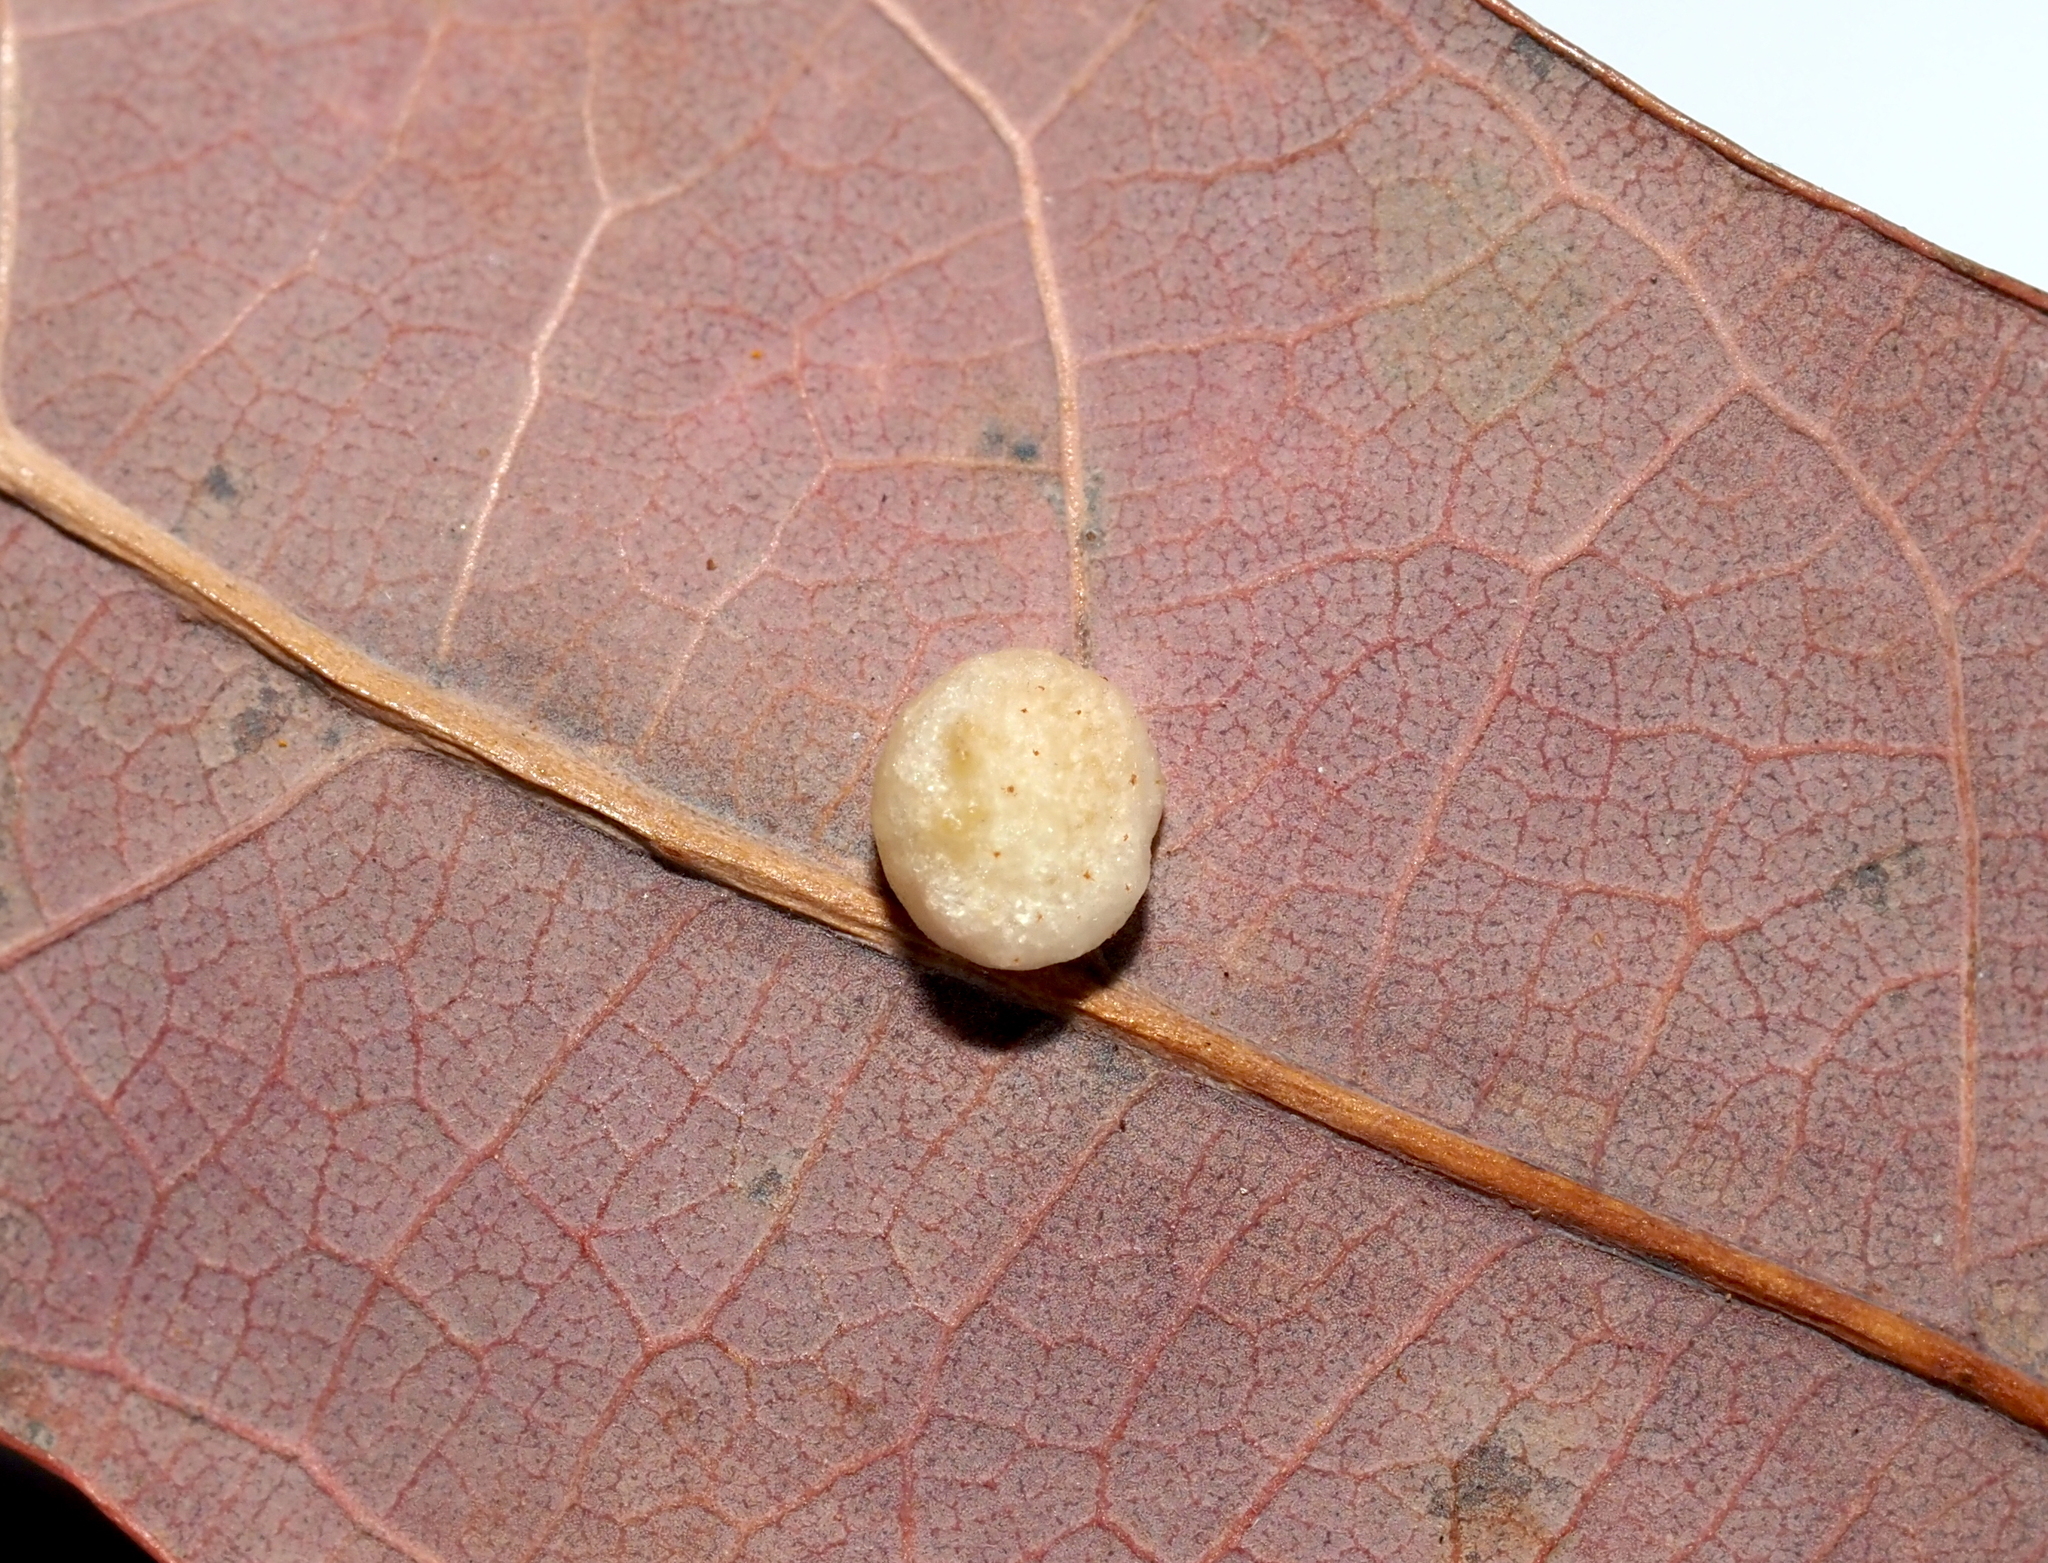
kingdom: Animalia
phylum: Arthropoda
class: Insecta
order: Hymenoptera
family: Cynipidae
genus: Phylloteras
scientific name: Phylloteras
